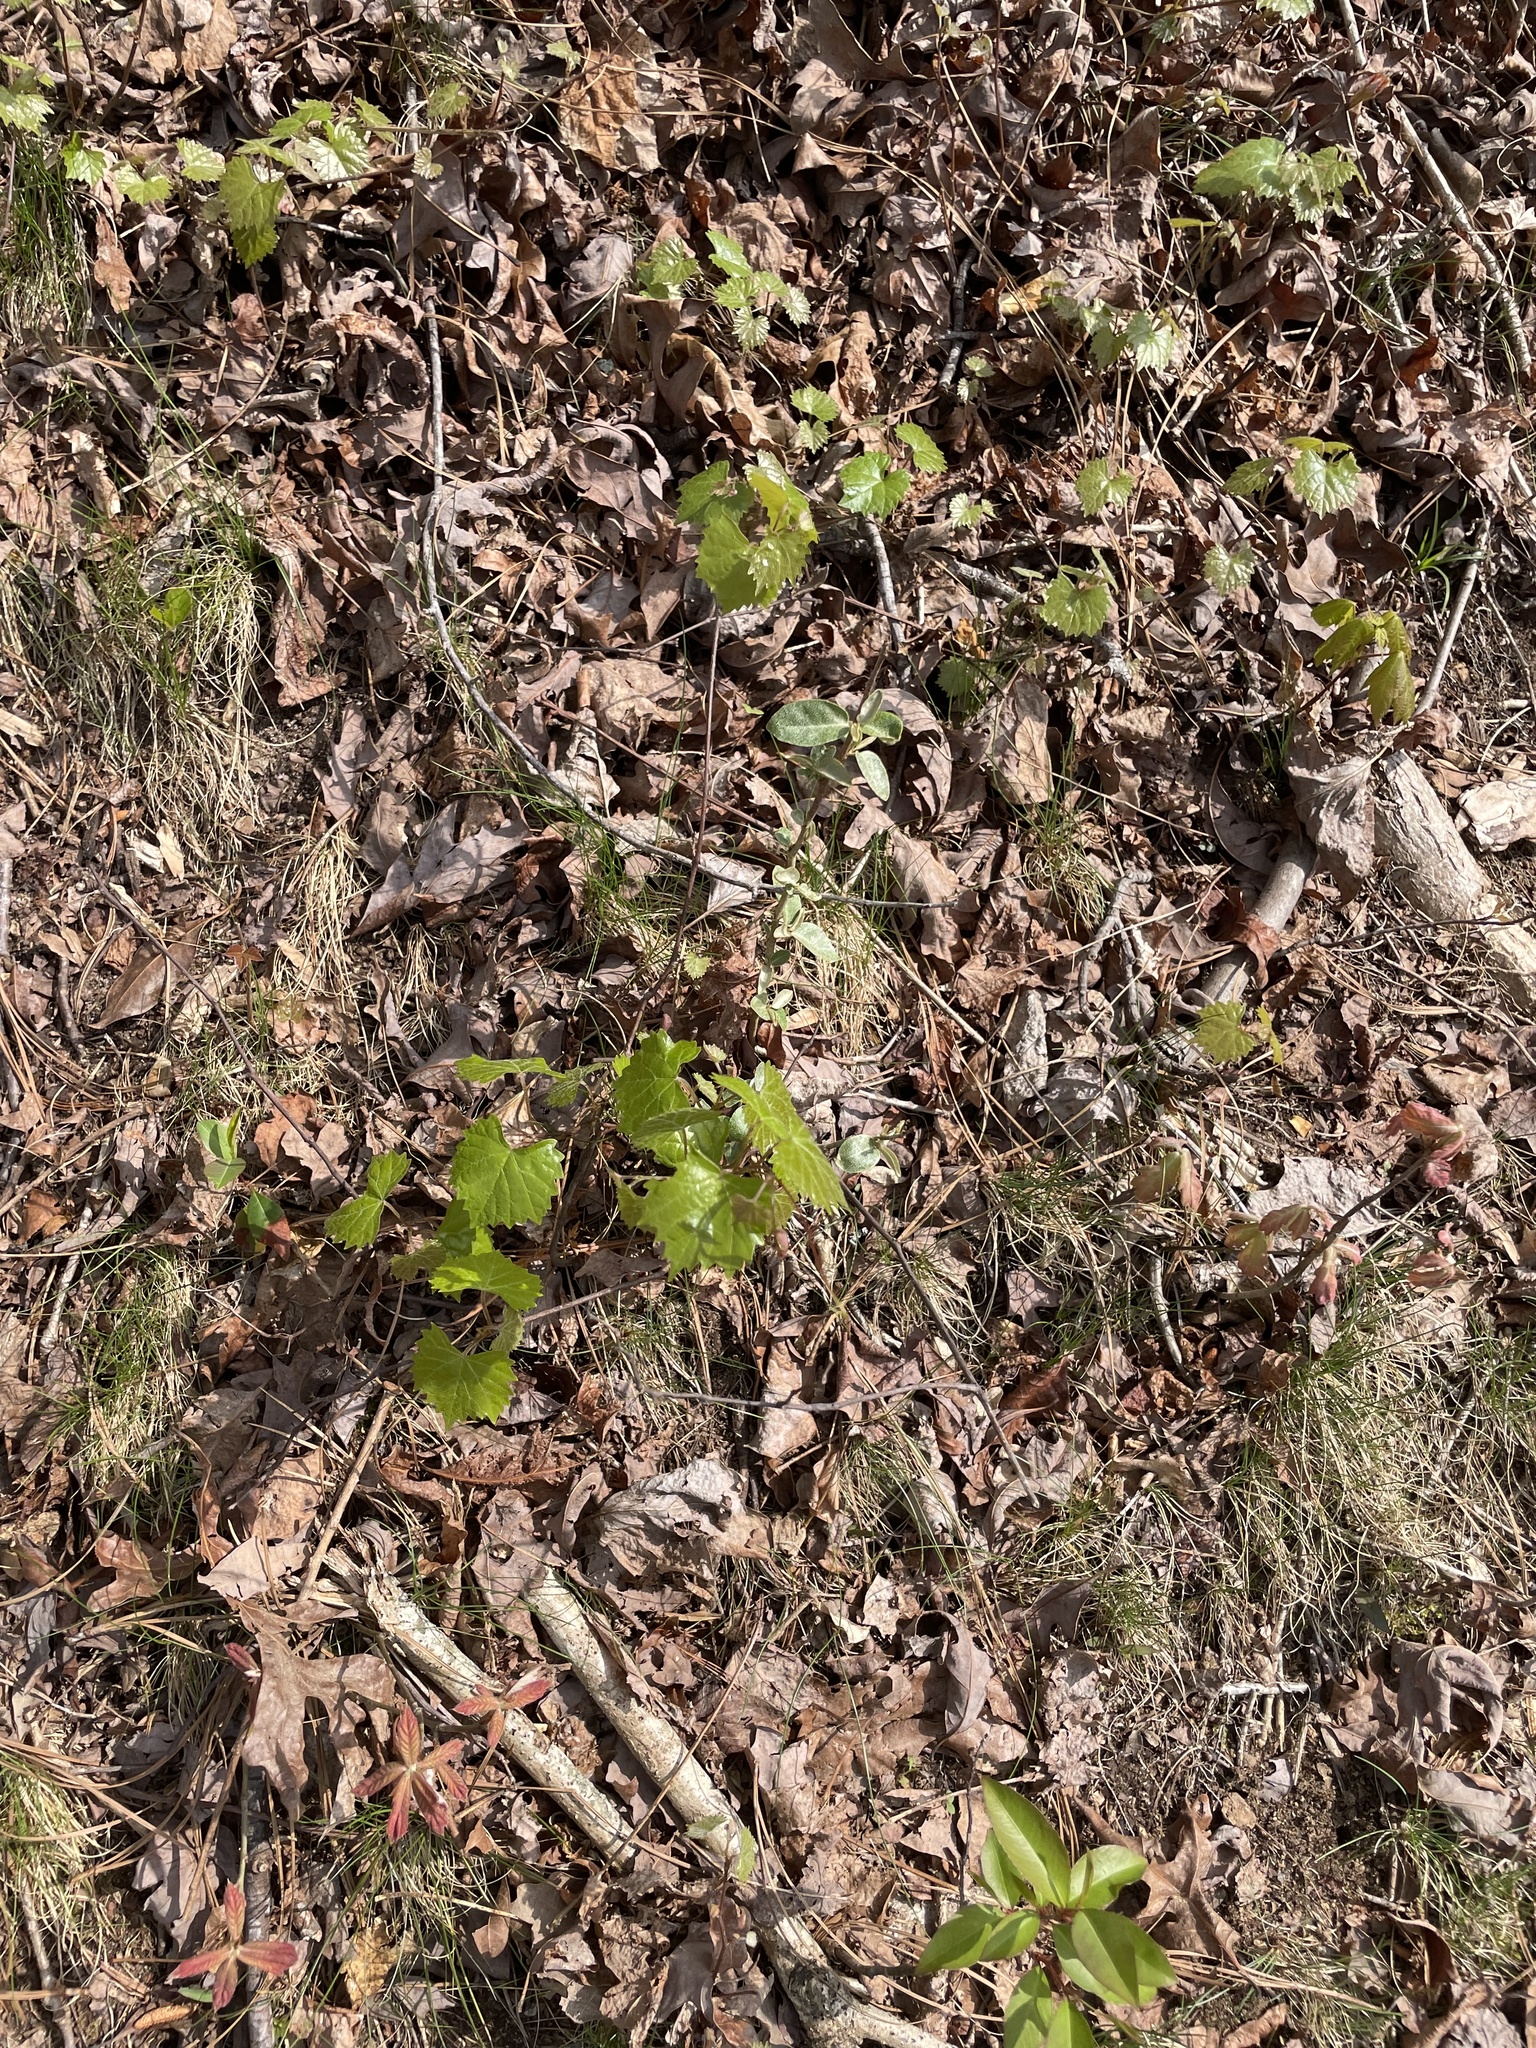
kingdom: Plantae
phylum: Tracheophyta
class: Magnoliopsida
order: Vitales
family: Vitaceae
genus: Vitis
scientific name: Vitis rotundifolia
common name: Muscadine grape
